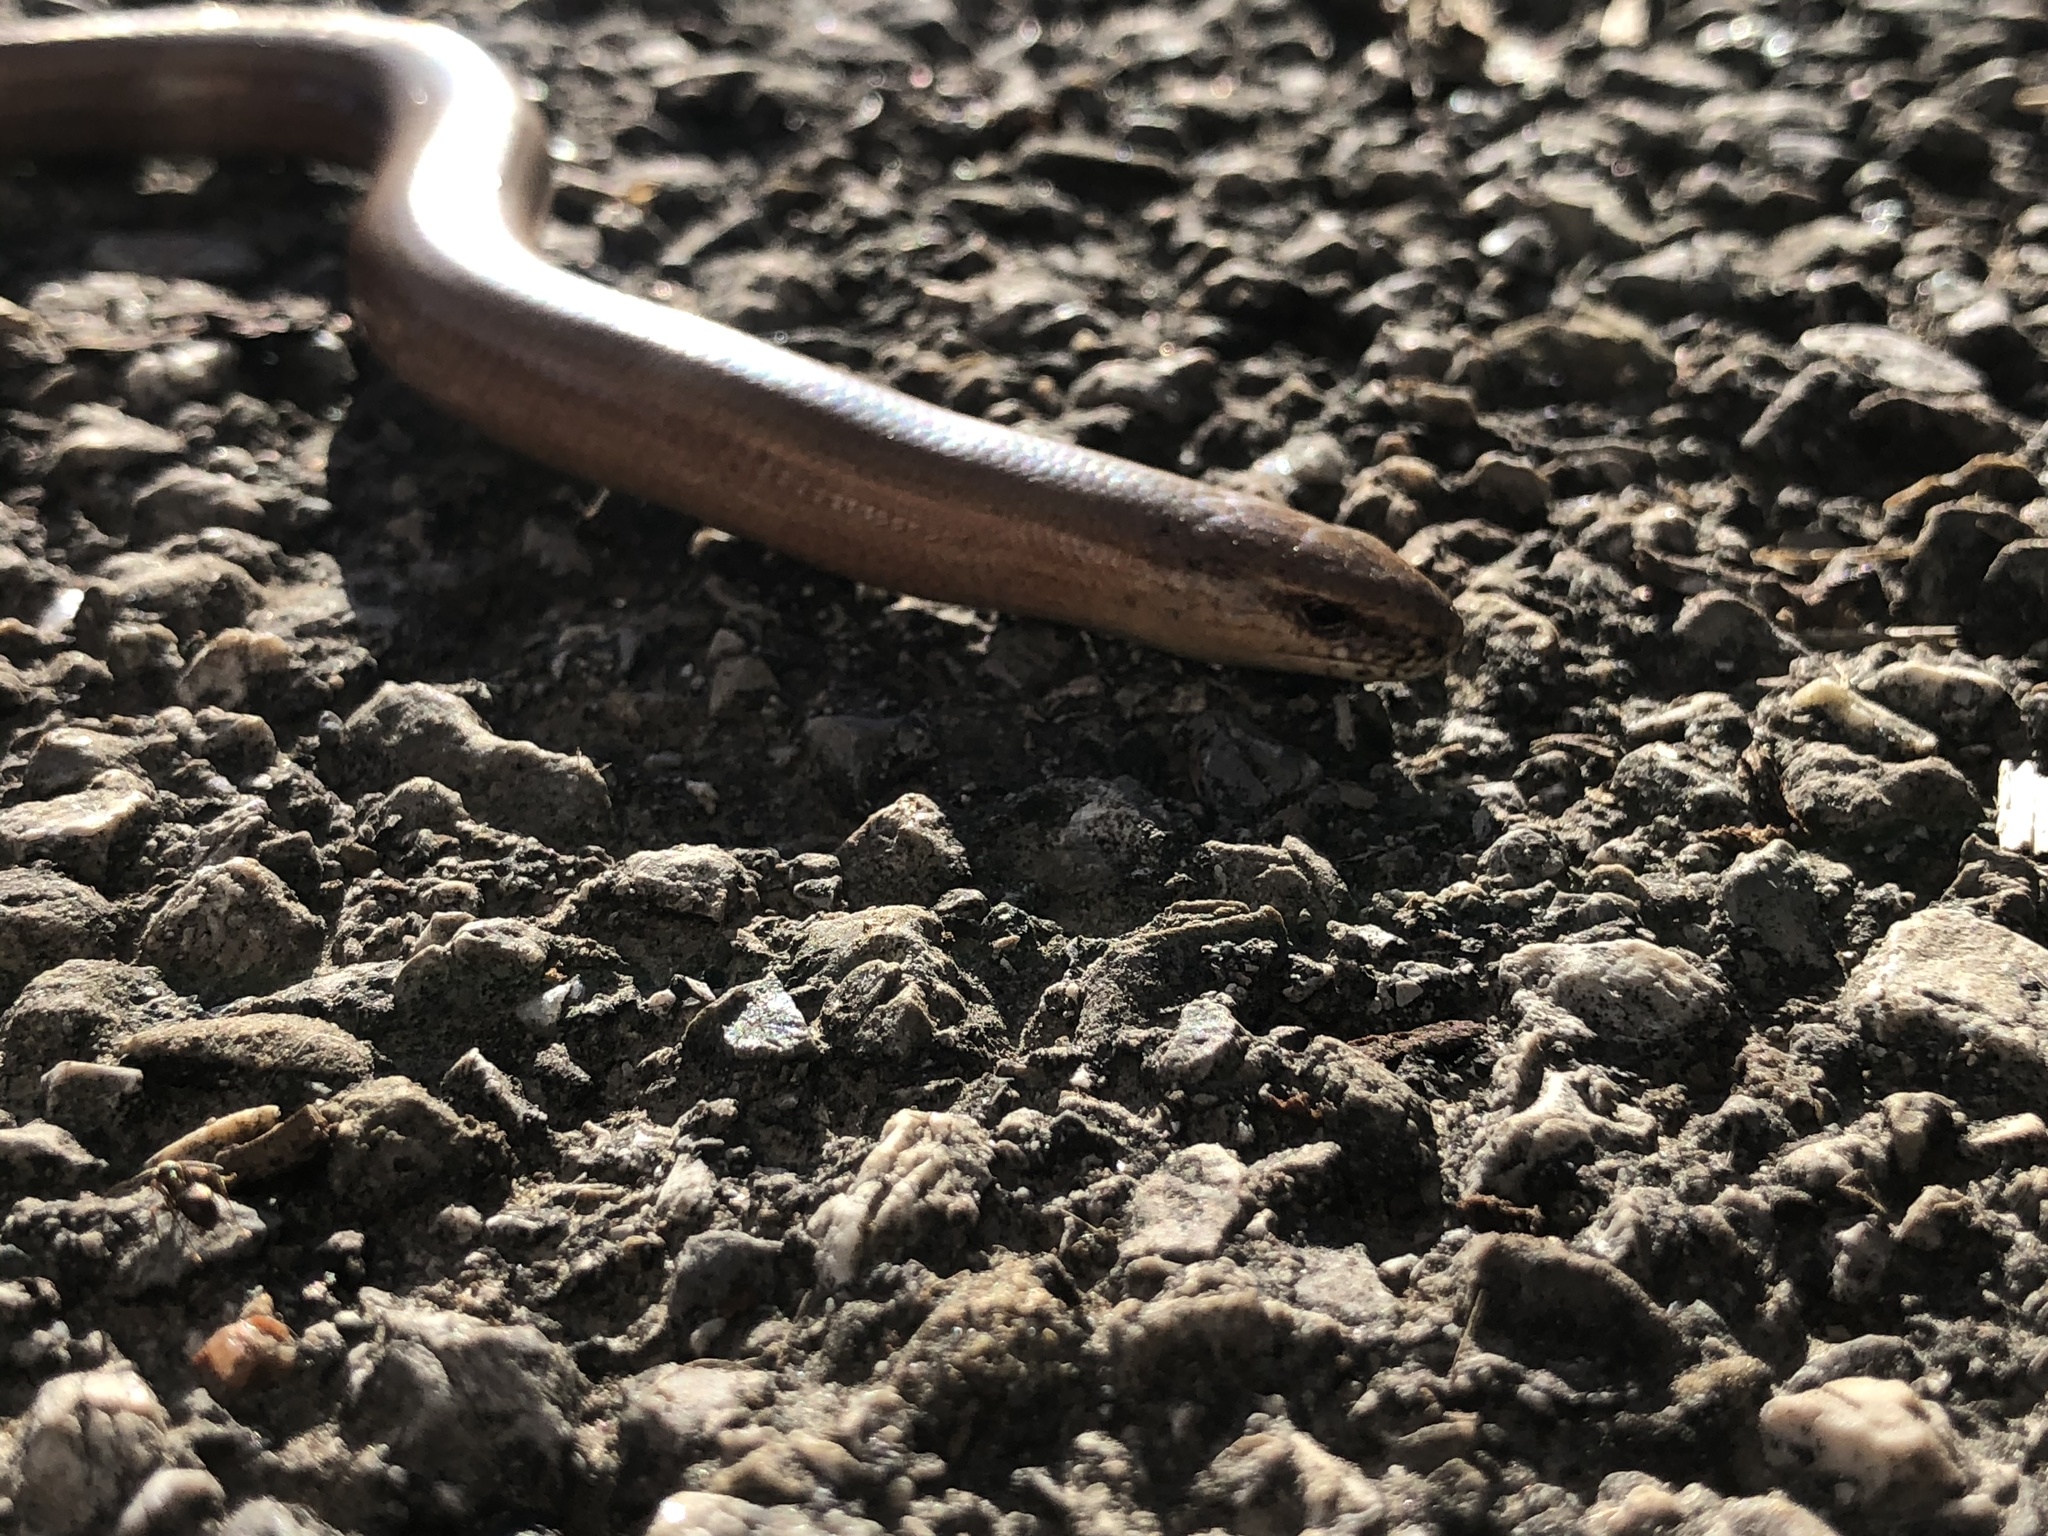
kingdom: Animalia
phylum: Chordata
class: Squamata
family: Anguidae
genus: Anguis
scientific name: Anguis fragilis
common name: Slow worm
